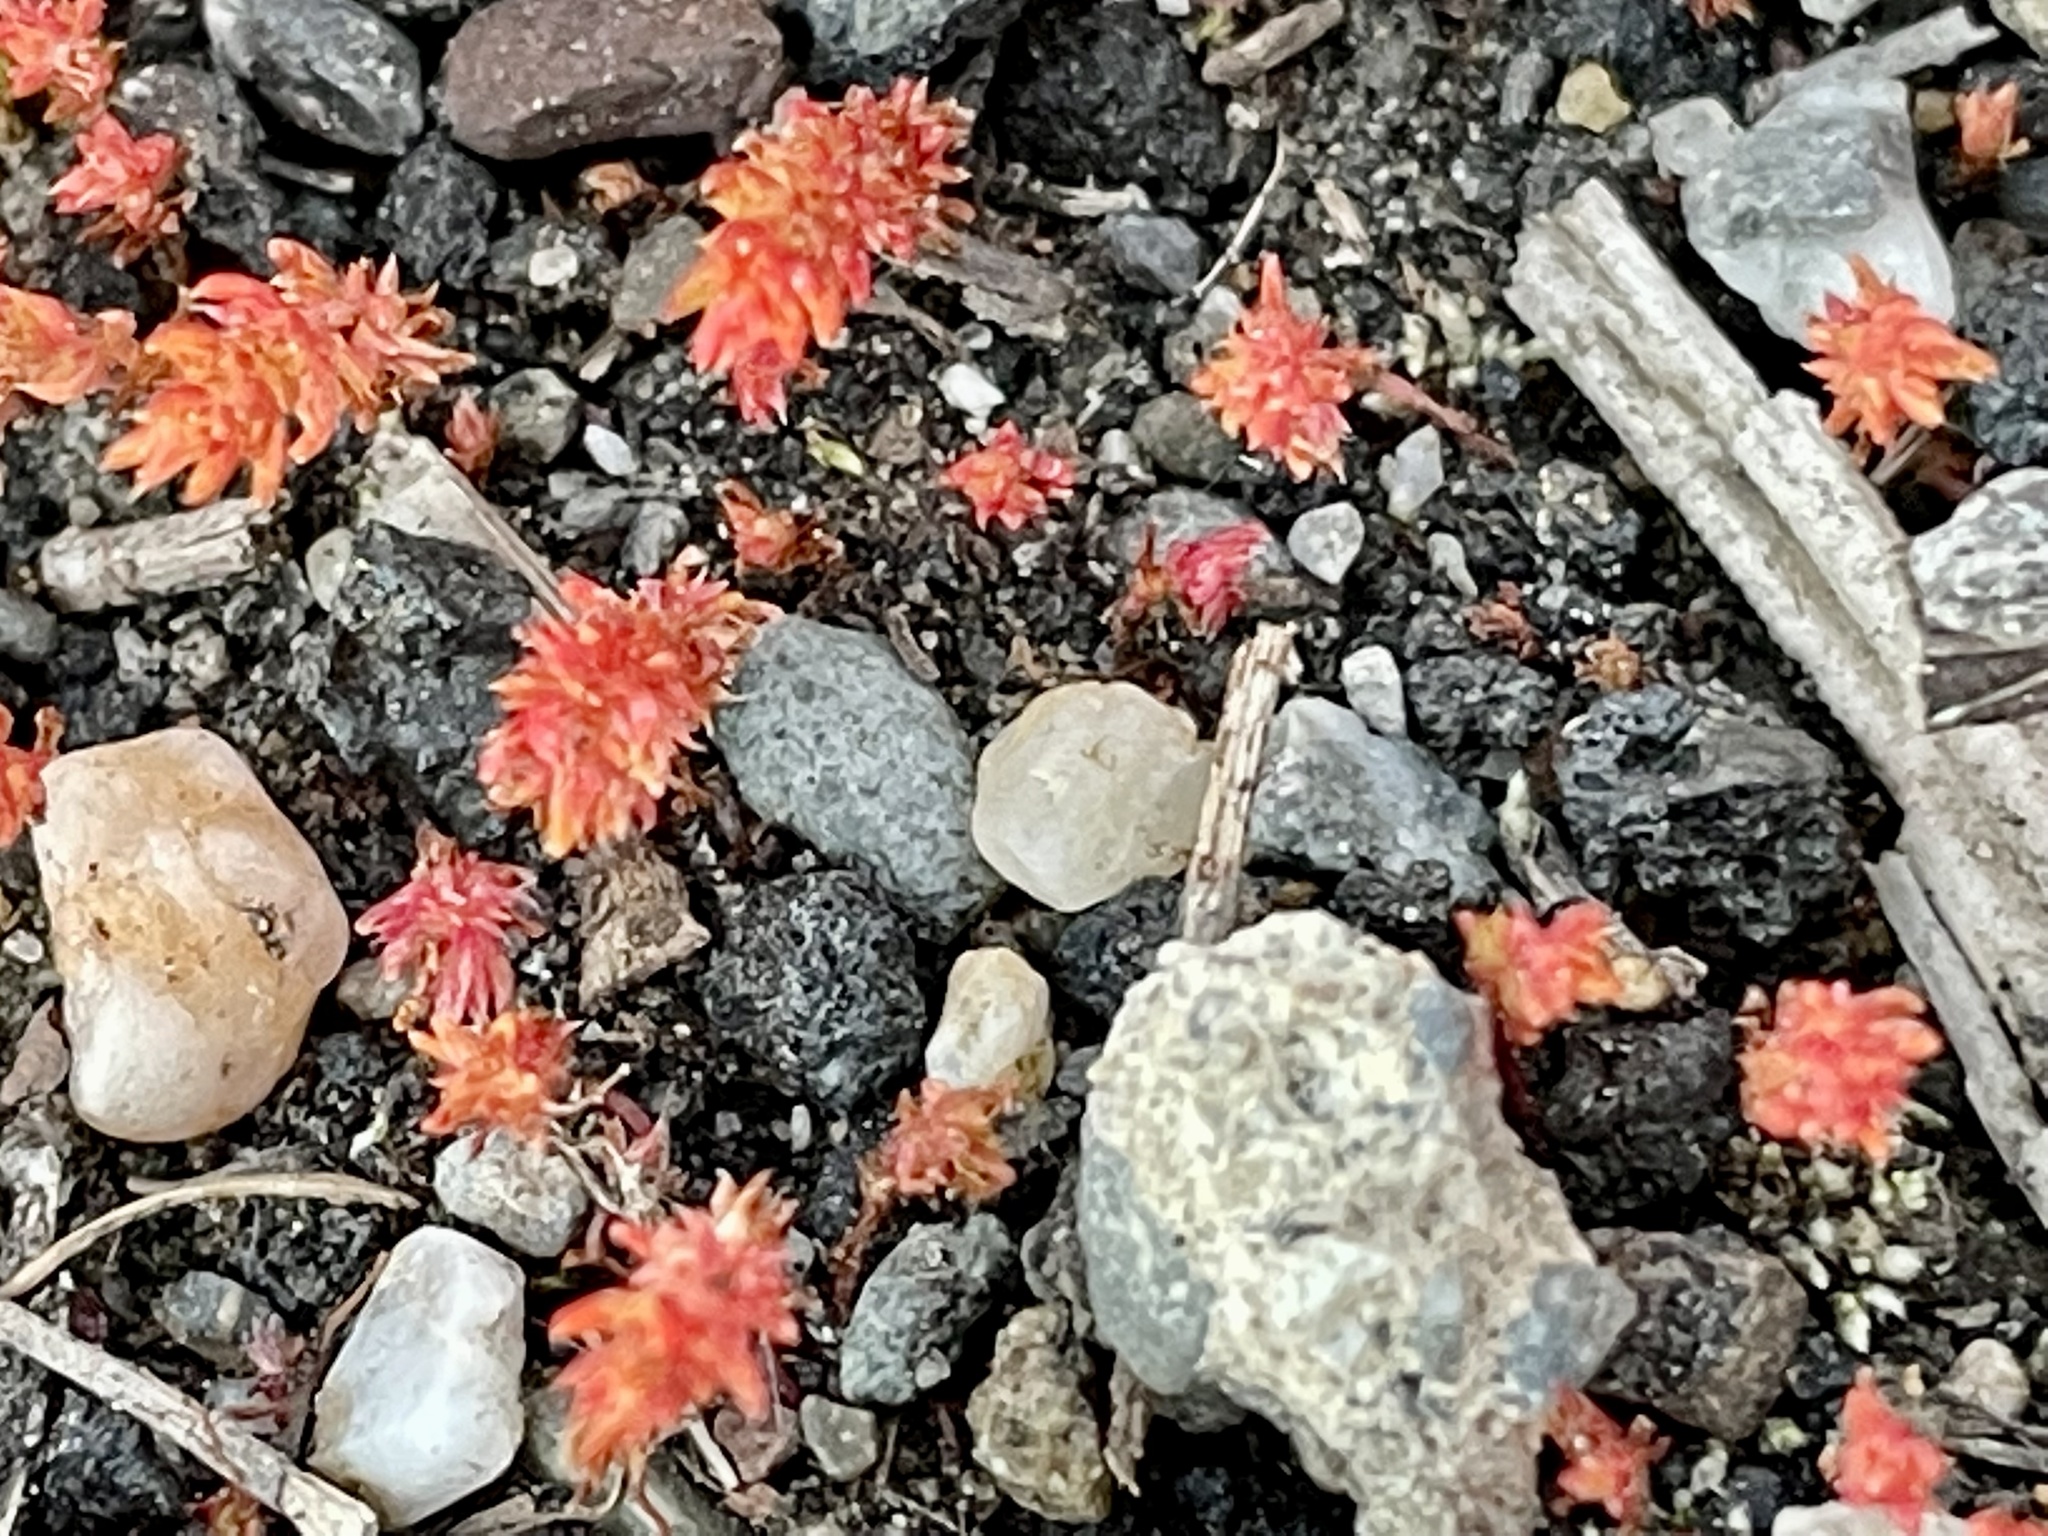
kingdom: Plantae
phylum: Tracheophyta
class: Magnoliopsida
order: Saxifragales
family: Crassulaceae
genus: Crassula
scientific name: Crassula tillaea
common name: Mossy stonecrop
